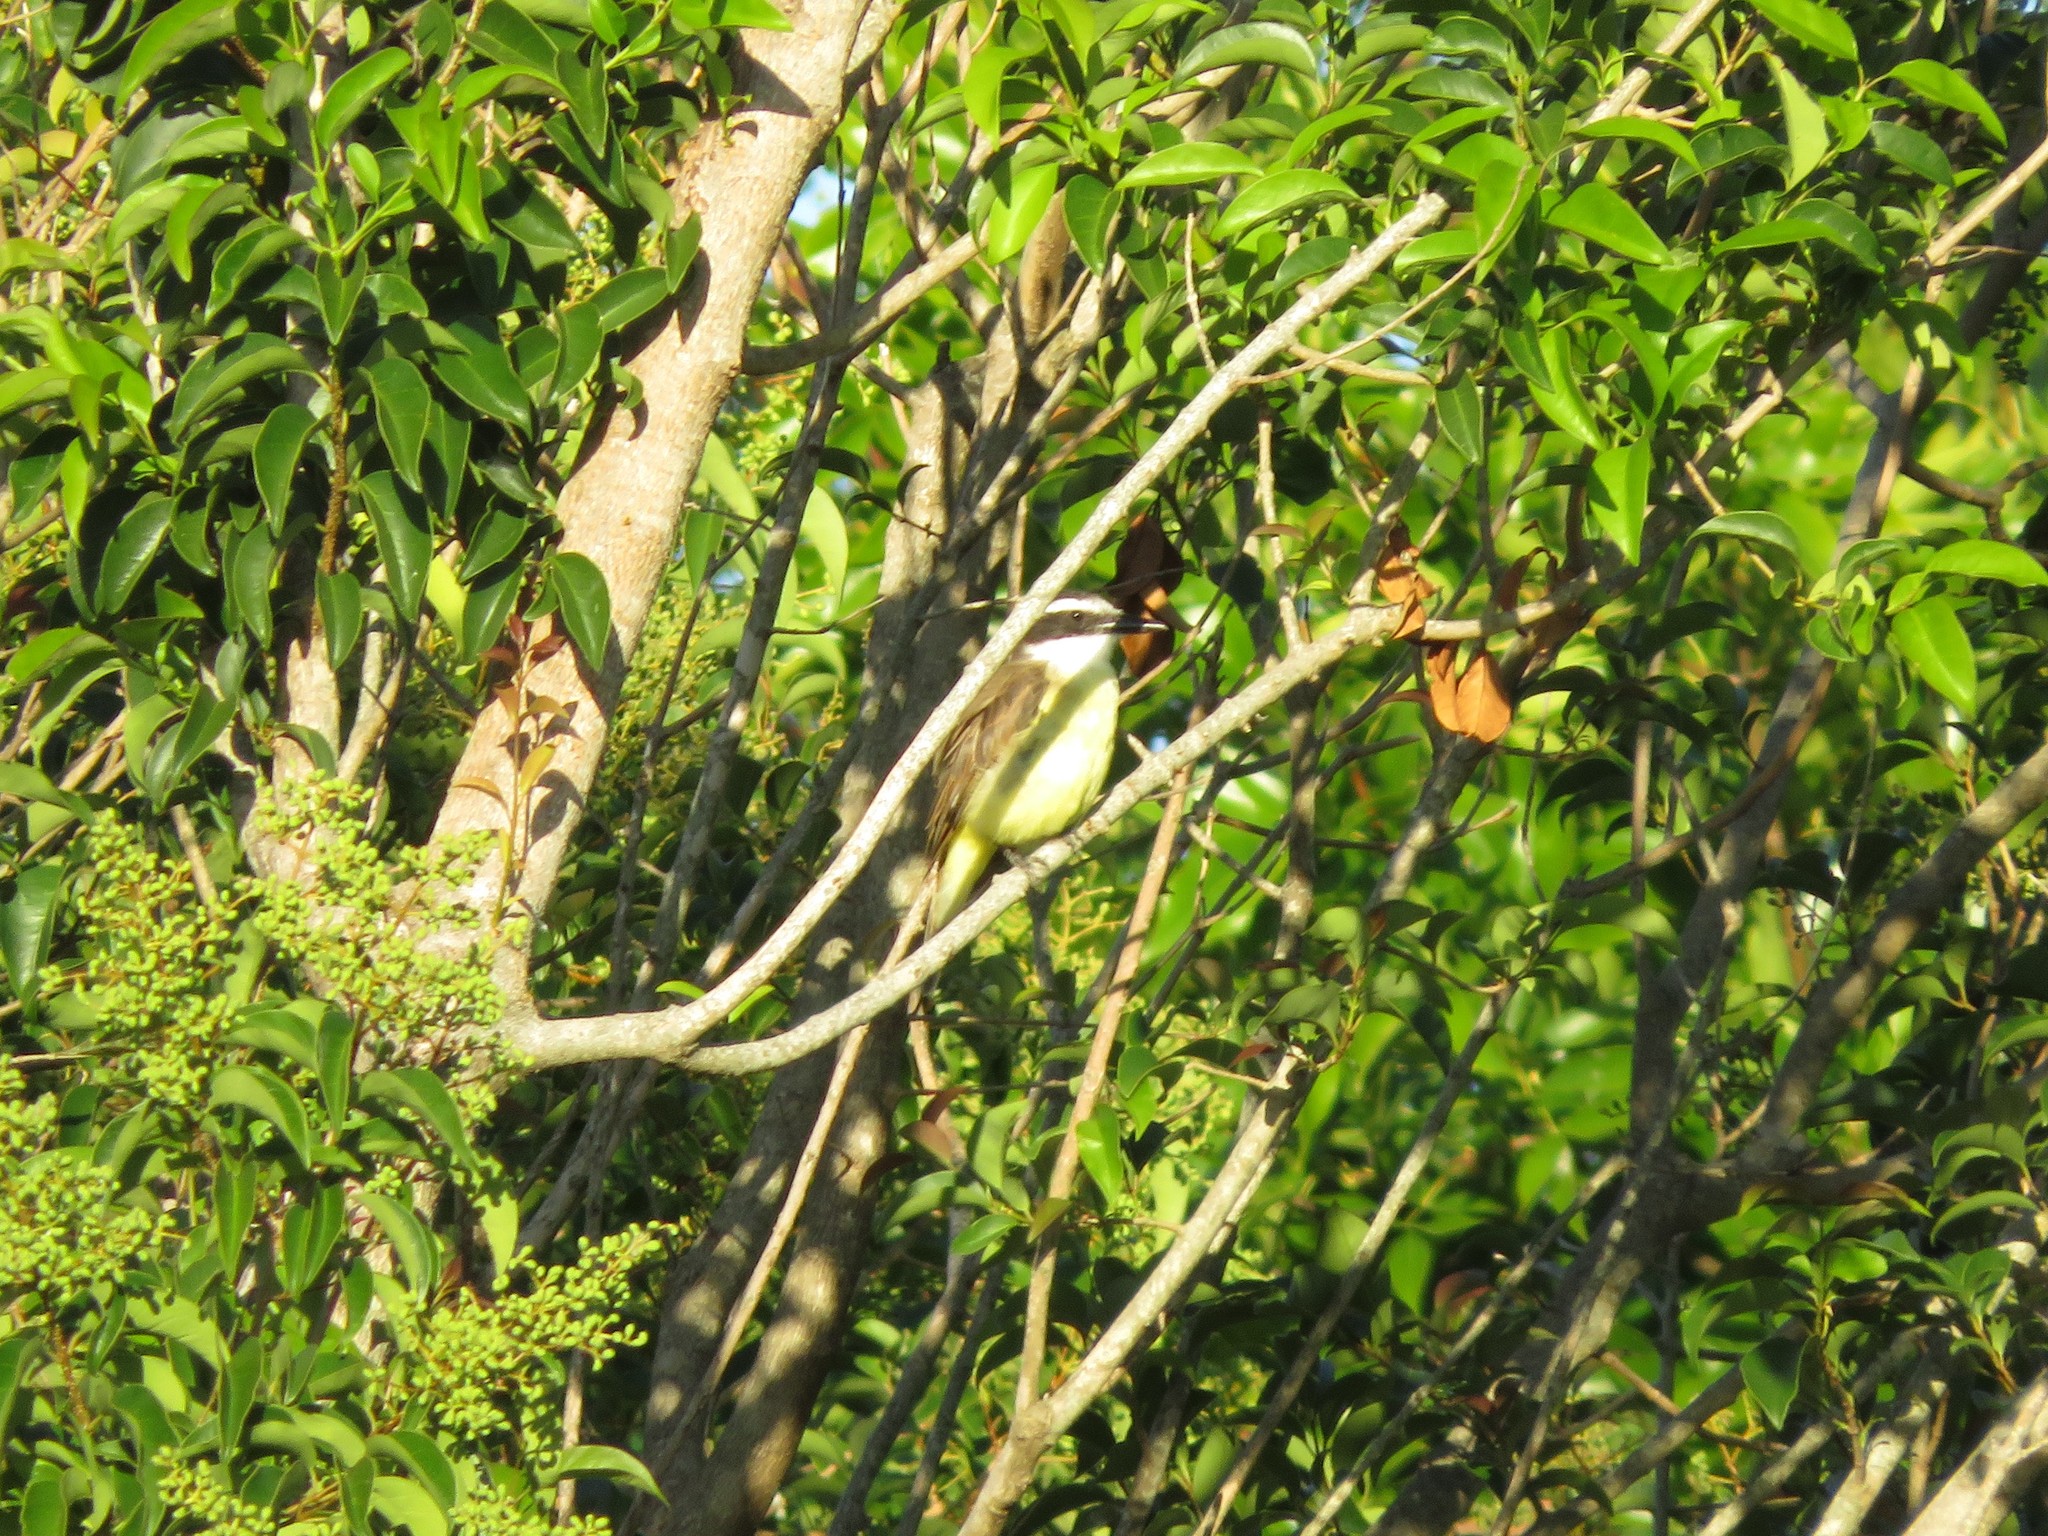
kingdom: Animalia
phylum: Chordata
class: Aves
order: Passeriformes
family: Tyrannidae
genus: Pitangus
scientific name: Pitangus sulphuratus
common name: Great kiskadee
